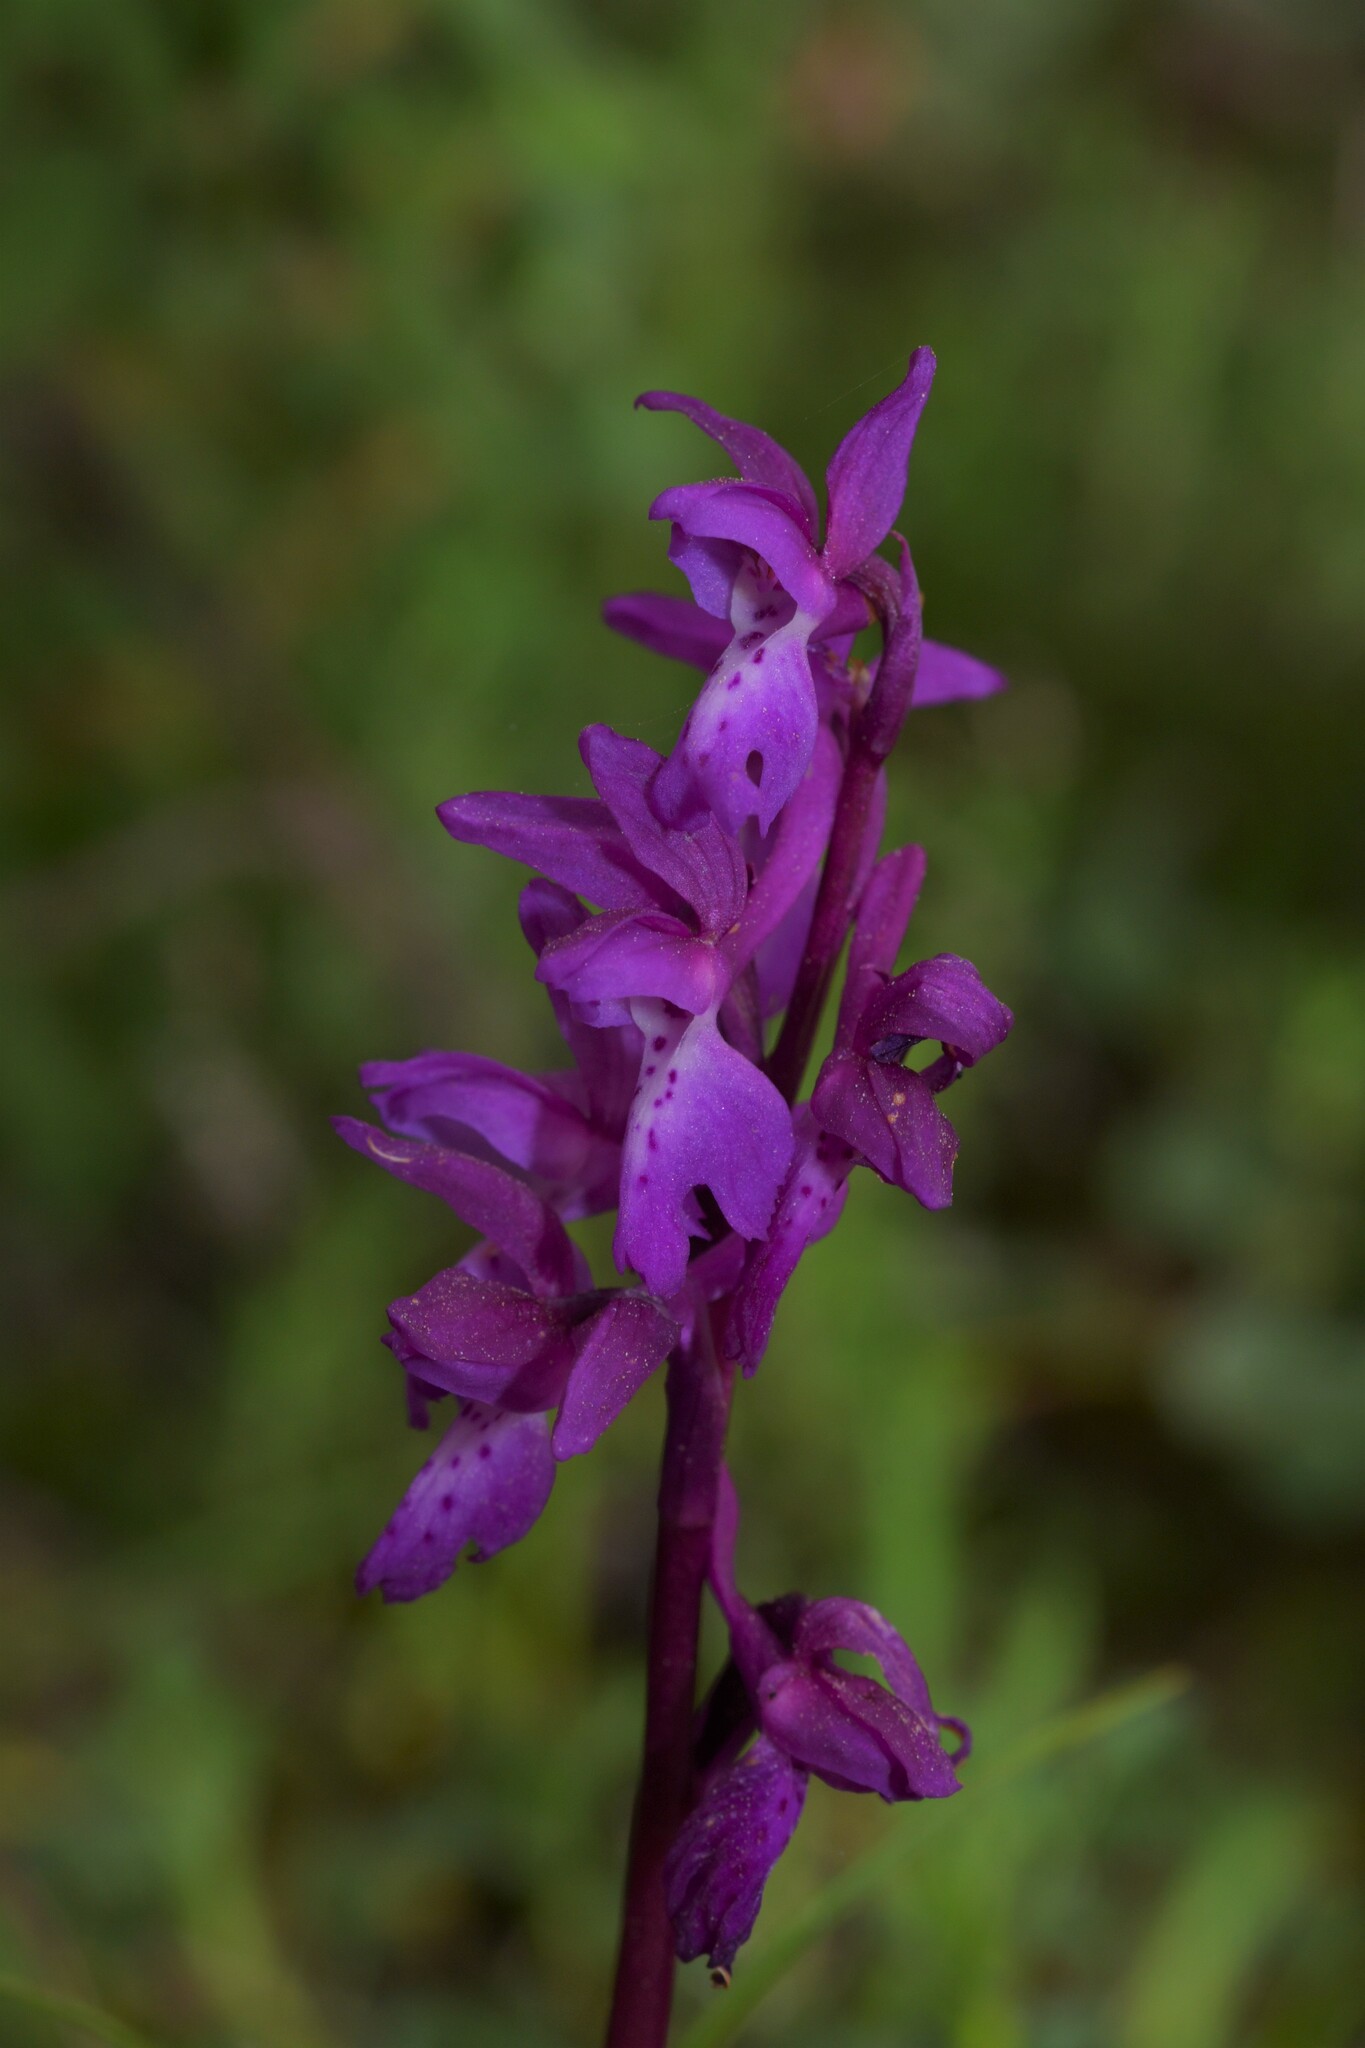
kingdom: Plantae
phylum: Tracheophyta
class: Liliopsida
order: Asparagales
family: Orchidaceae
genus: Orchis
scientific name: Orchis mascula
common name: Early-purple orchid
